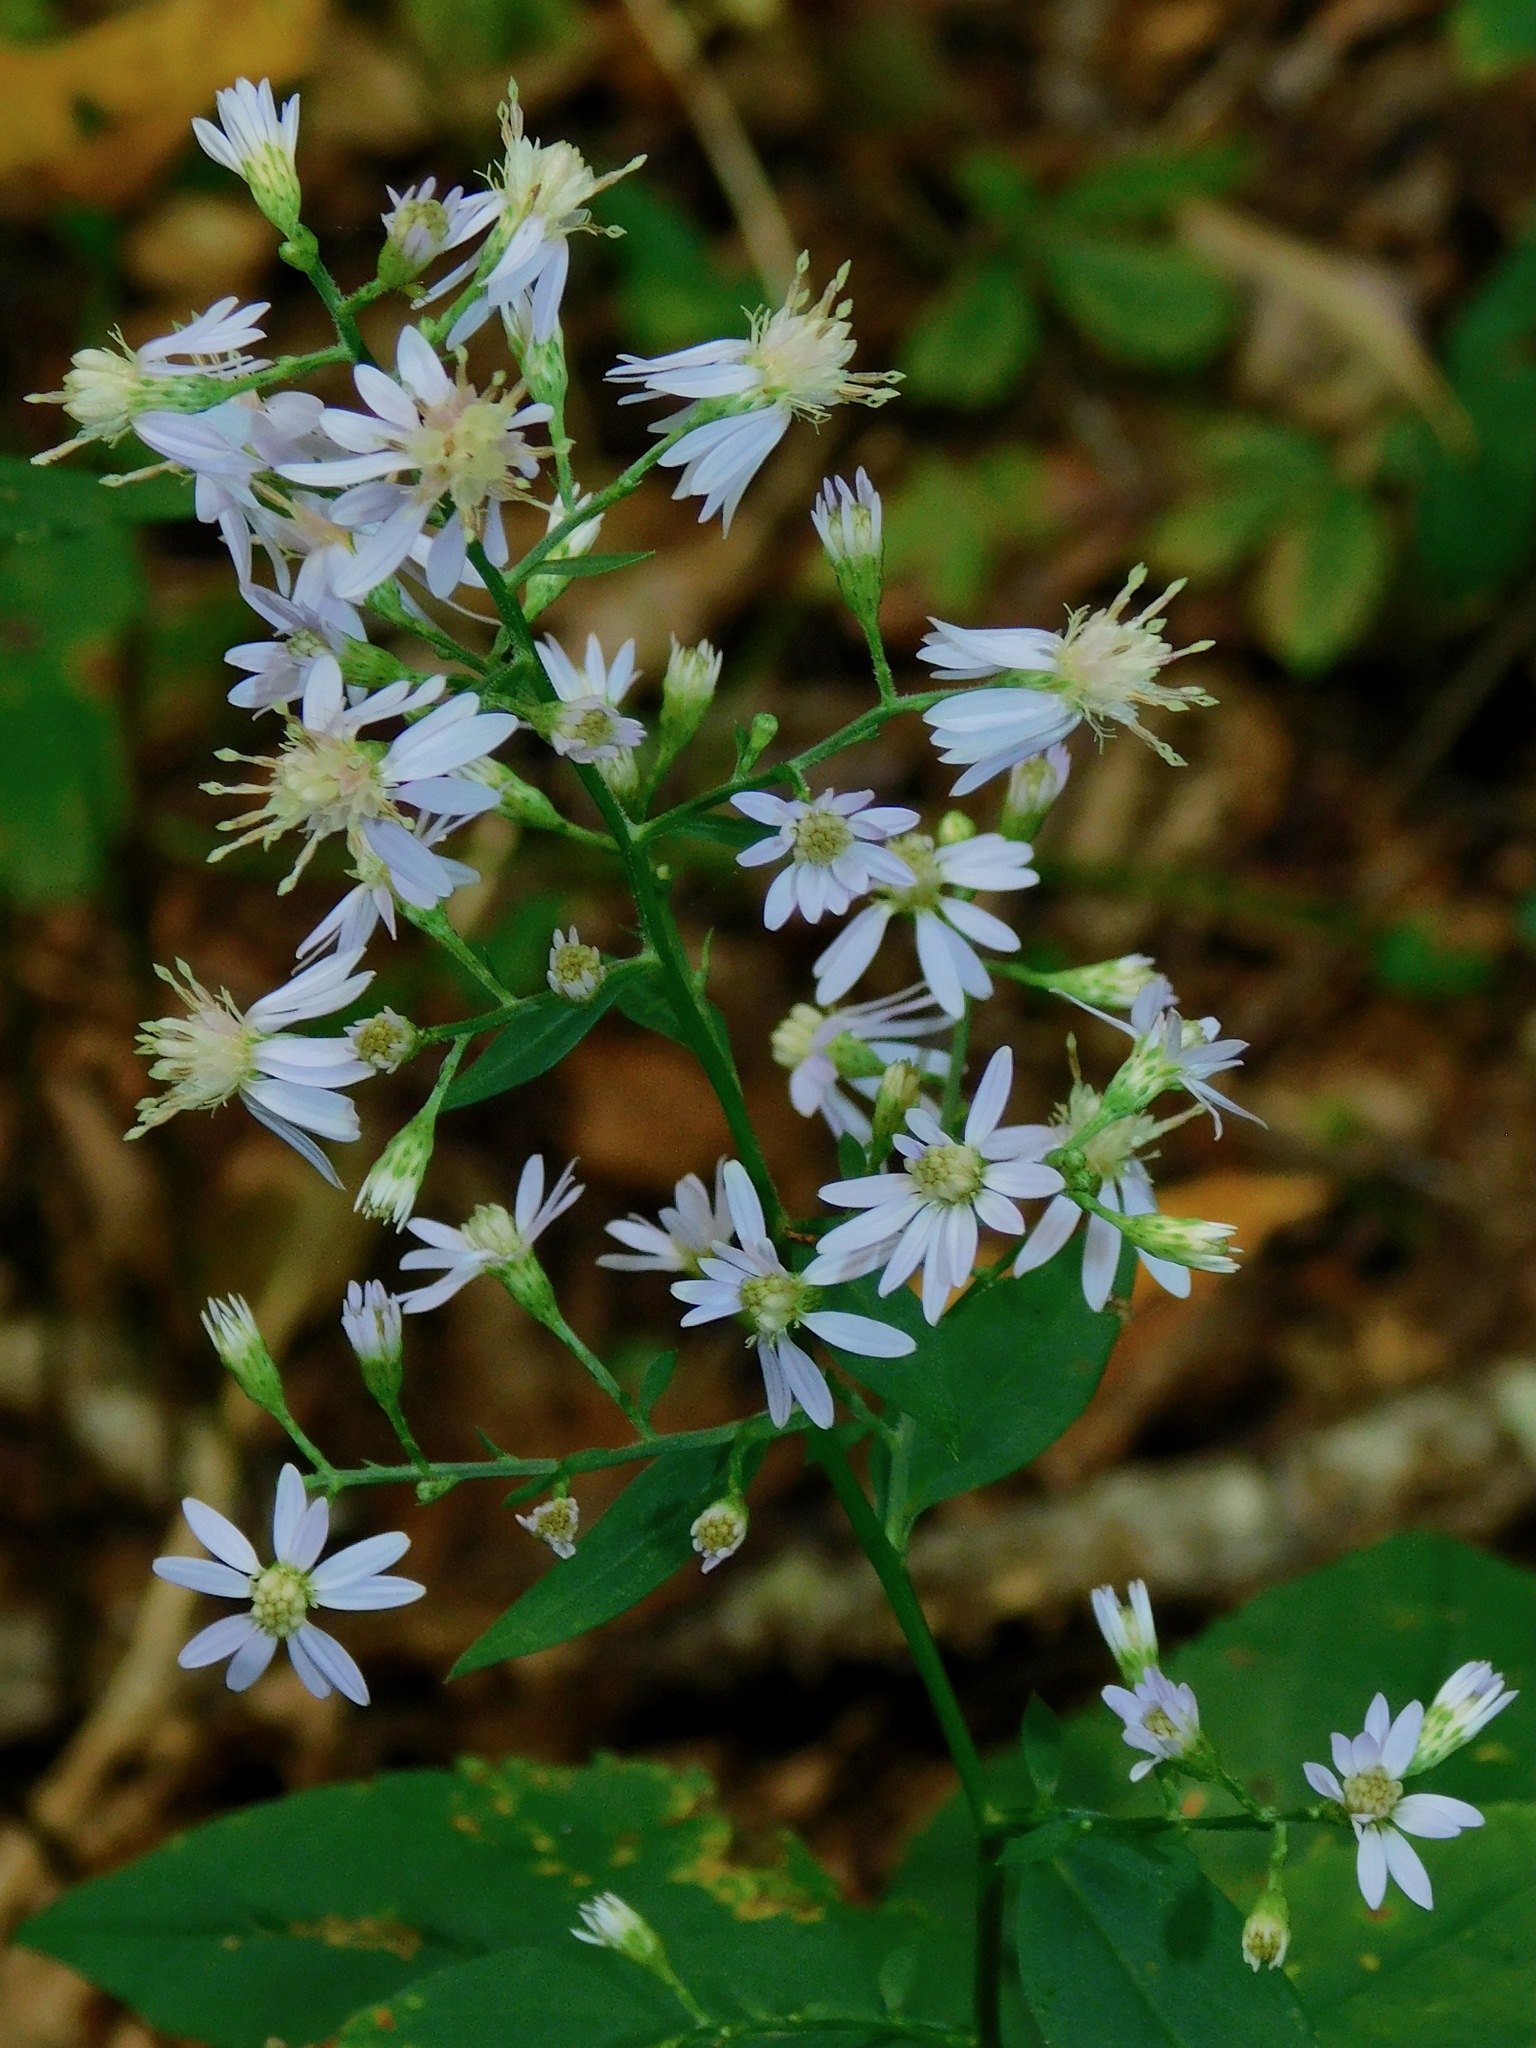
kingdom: Plantae
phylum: Tracheophyta
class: Magnoliopsida
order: Asterales
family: Asteraceae
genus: Symphyotrichum
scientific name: Symphyotrichum cordifolium
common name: Beeweed
